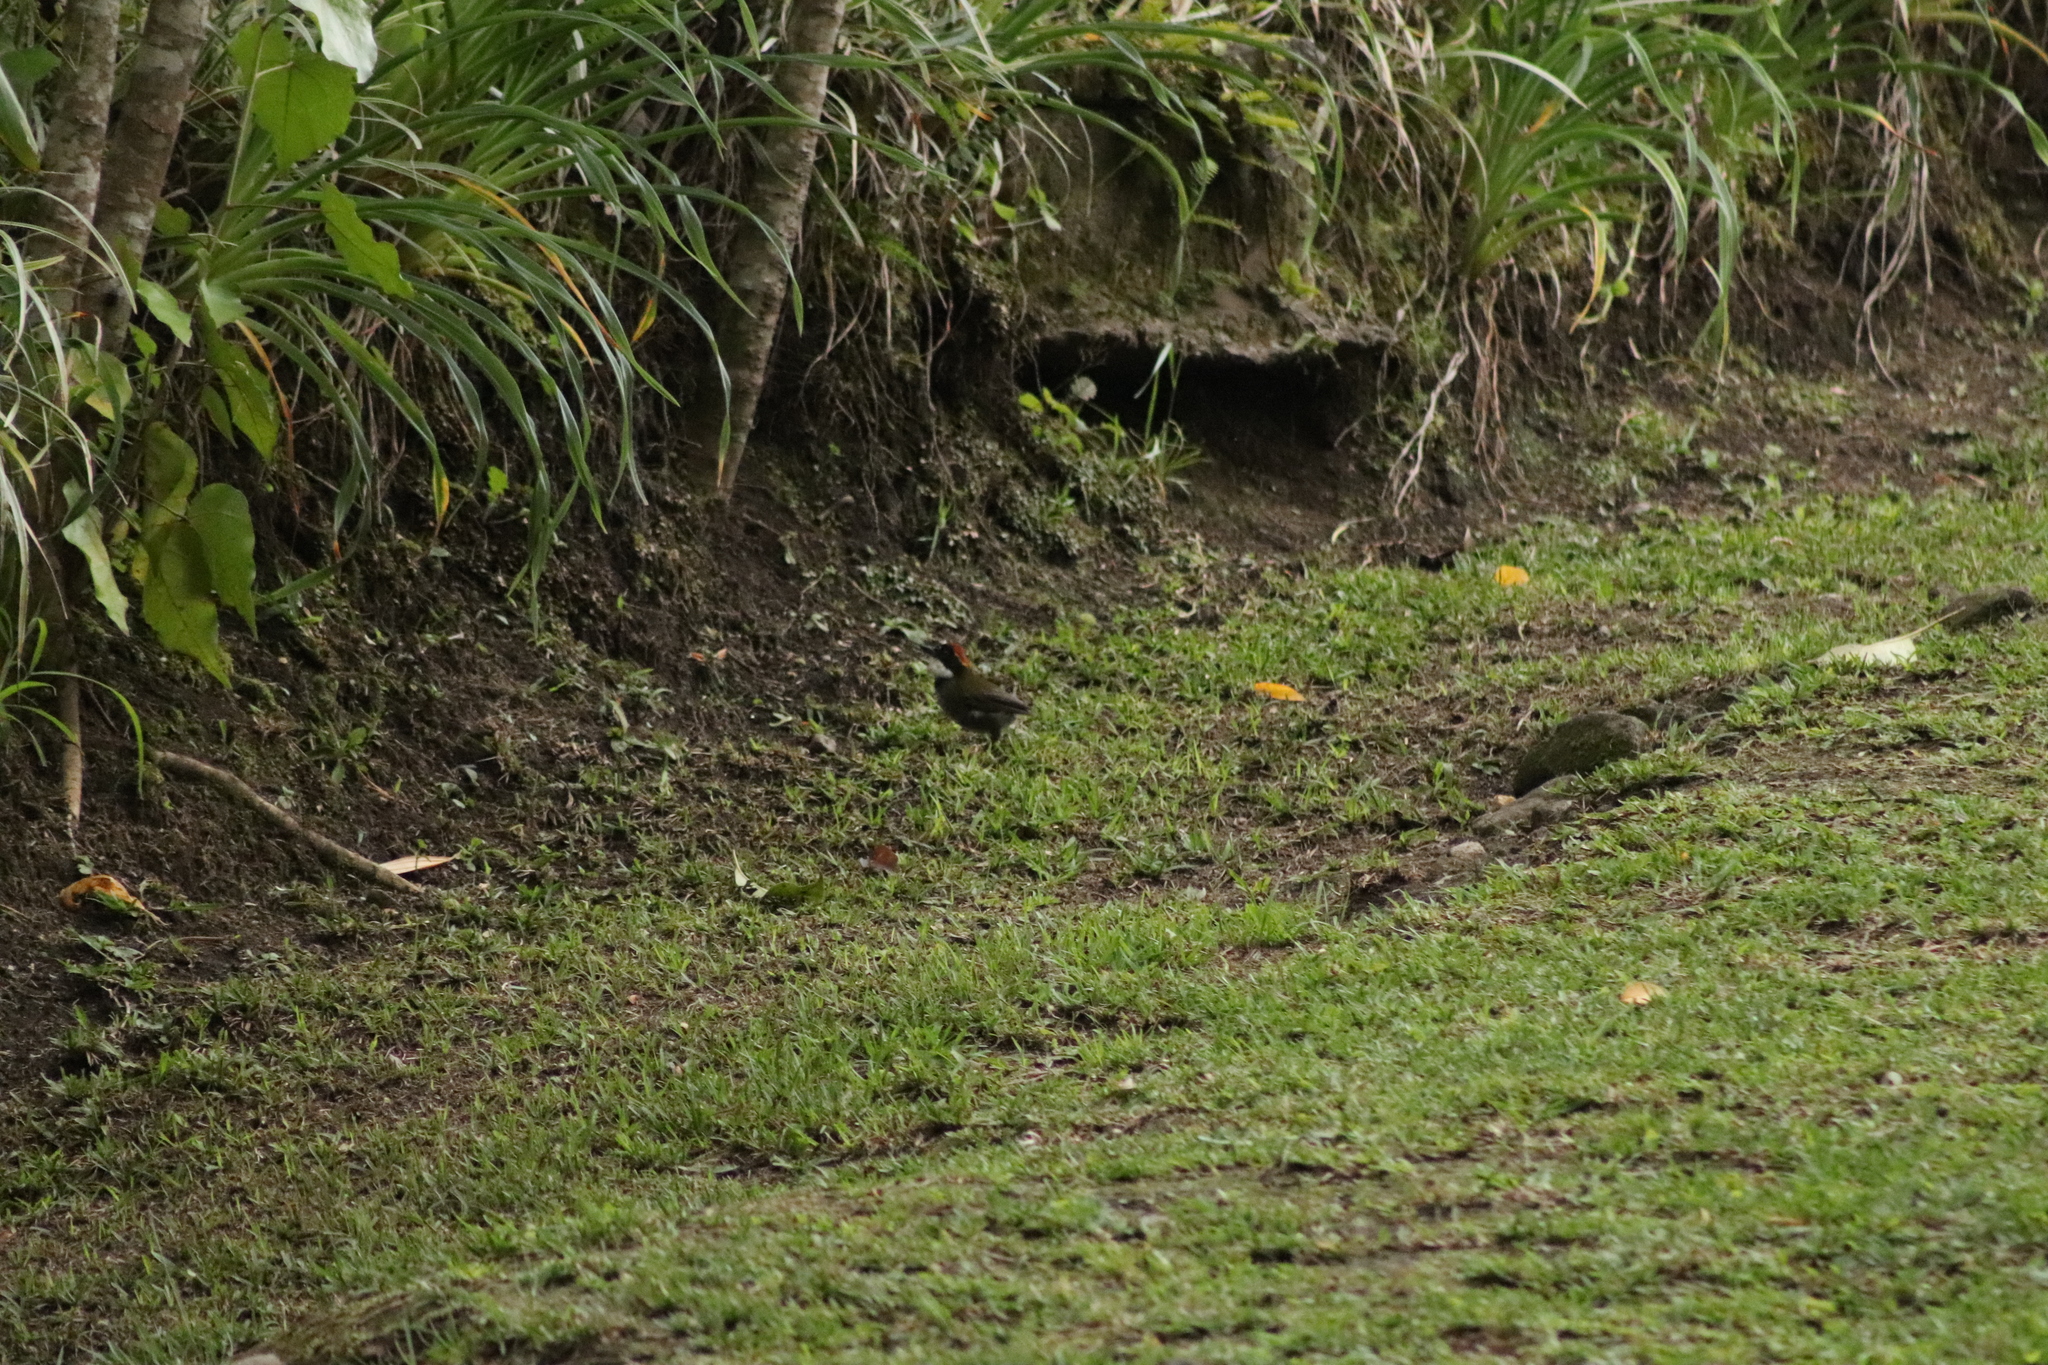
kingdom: Animalia
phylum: Chordata
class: Aves
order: Passeriformes
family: Passerellidae
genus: Arremon
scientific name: Arremon brunneinucha
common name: Chestnut-capped brushfinch
